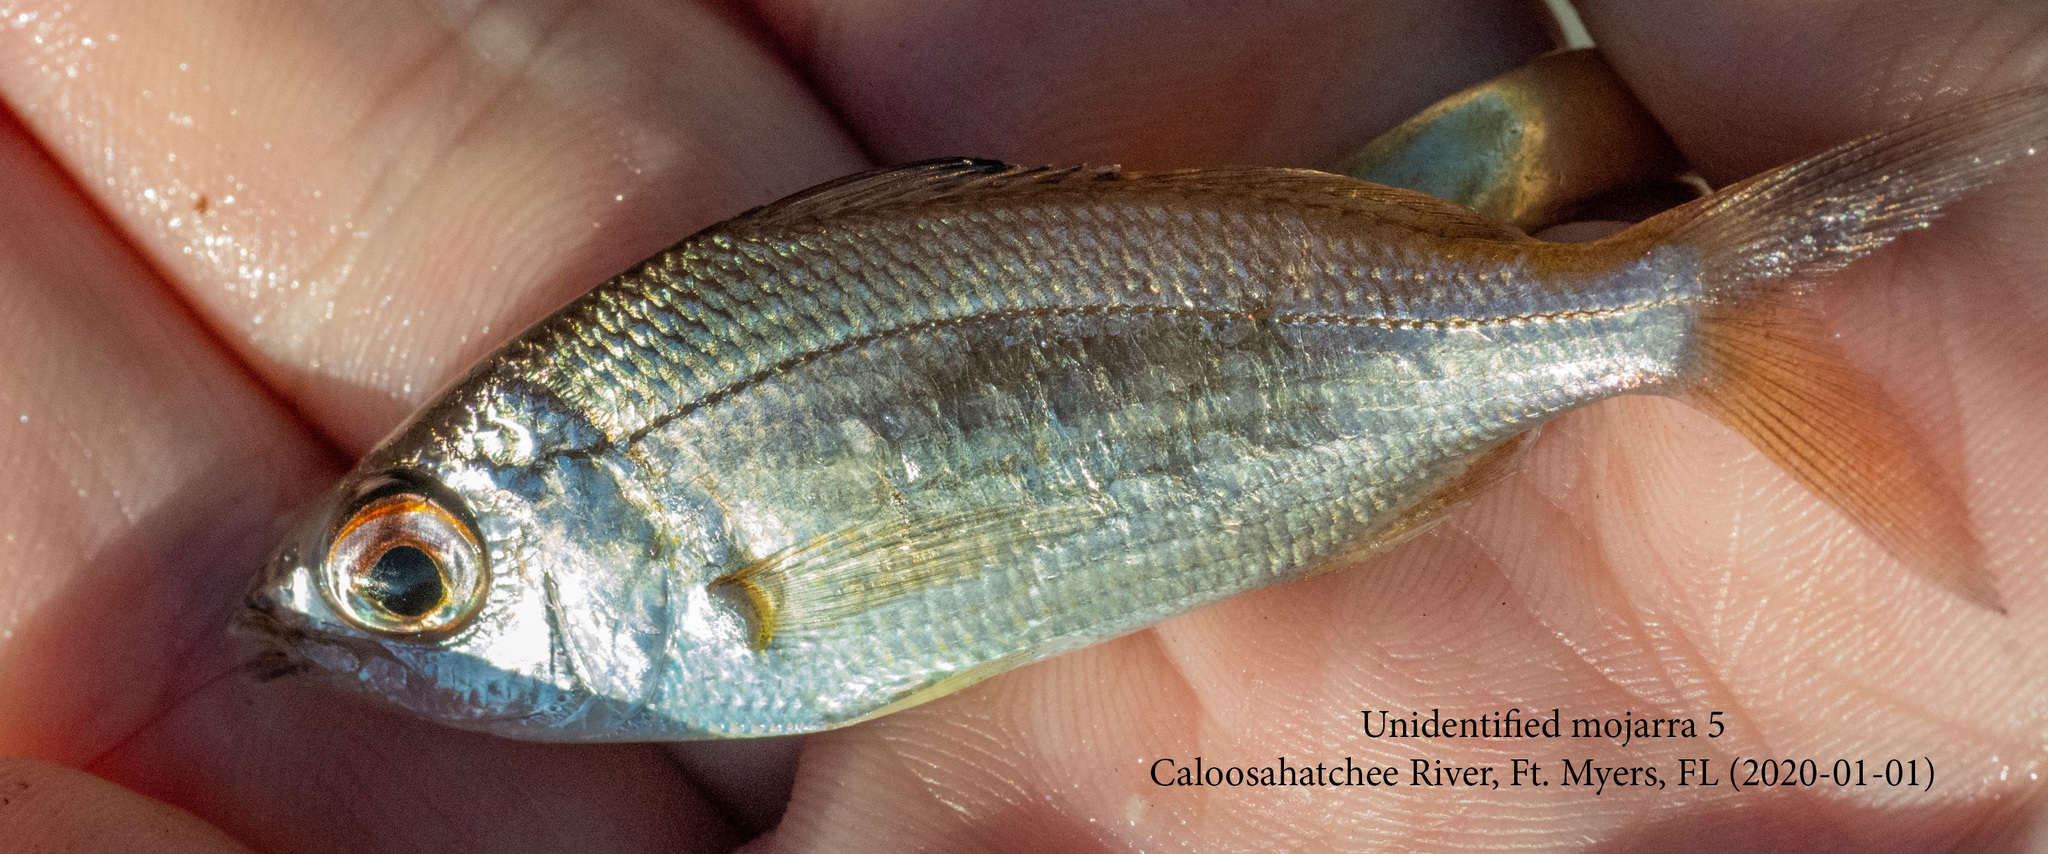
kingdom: Animalia
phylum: Chordata
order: Perciformes
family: Gerreidae
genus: Eucinostomus
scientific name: Eucinostomus harengulus
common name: Tidewater mojarra
